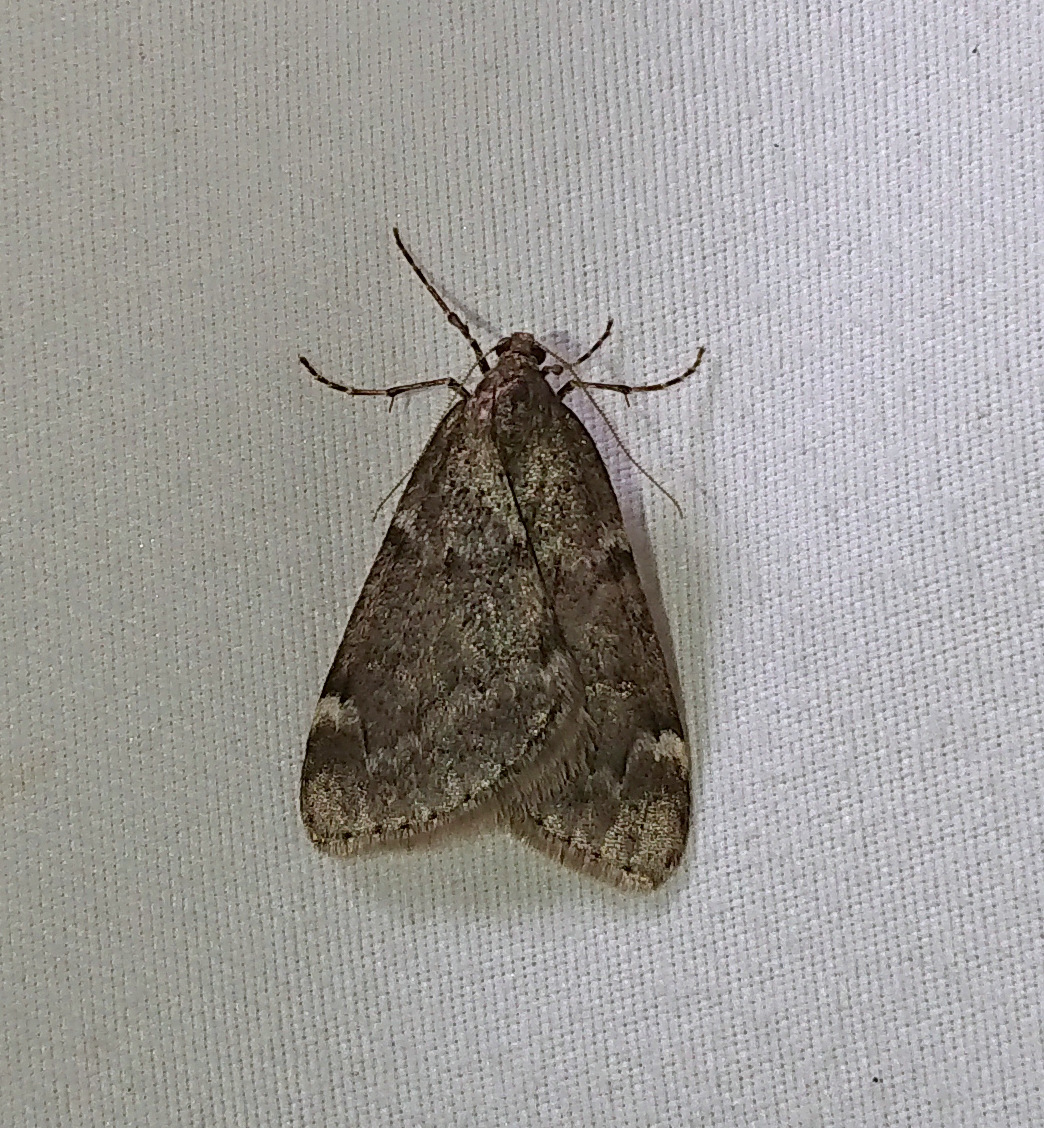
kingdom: Animalia
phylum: Arthropoda
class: Insecta
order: Lepidoptera
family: Geometridae
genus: Alsophila
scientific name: Alsophila pometaria
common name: Fall cankerworm
